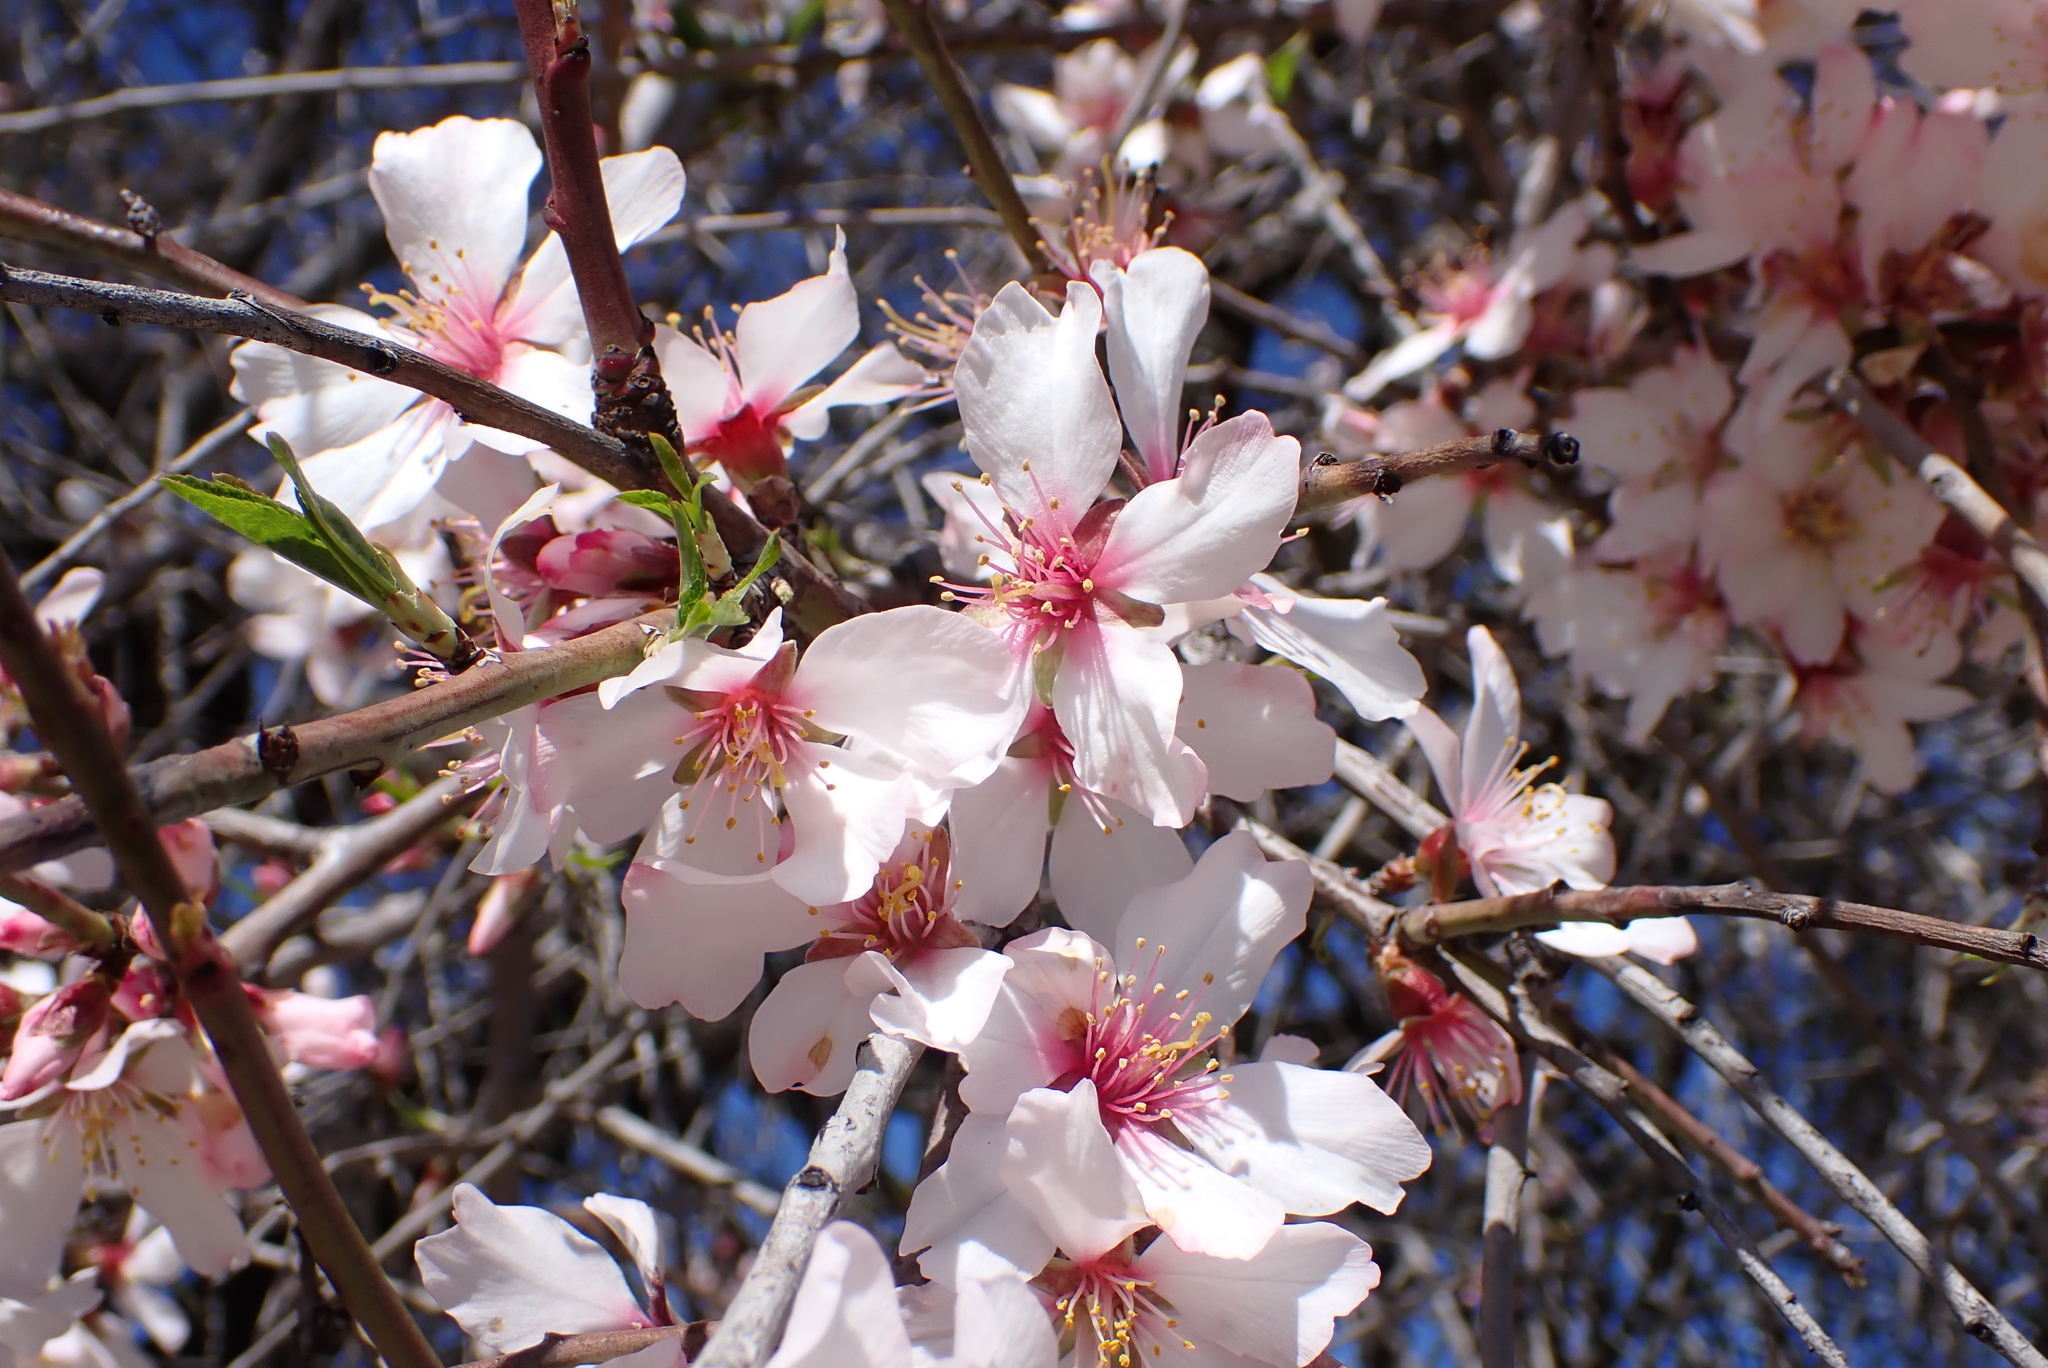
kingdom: Plantae
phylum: Tracheophyta
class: Magnoliopsida
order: Rosales
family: Rosaceae
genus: Prunus
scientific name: Prunus amygdalus
